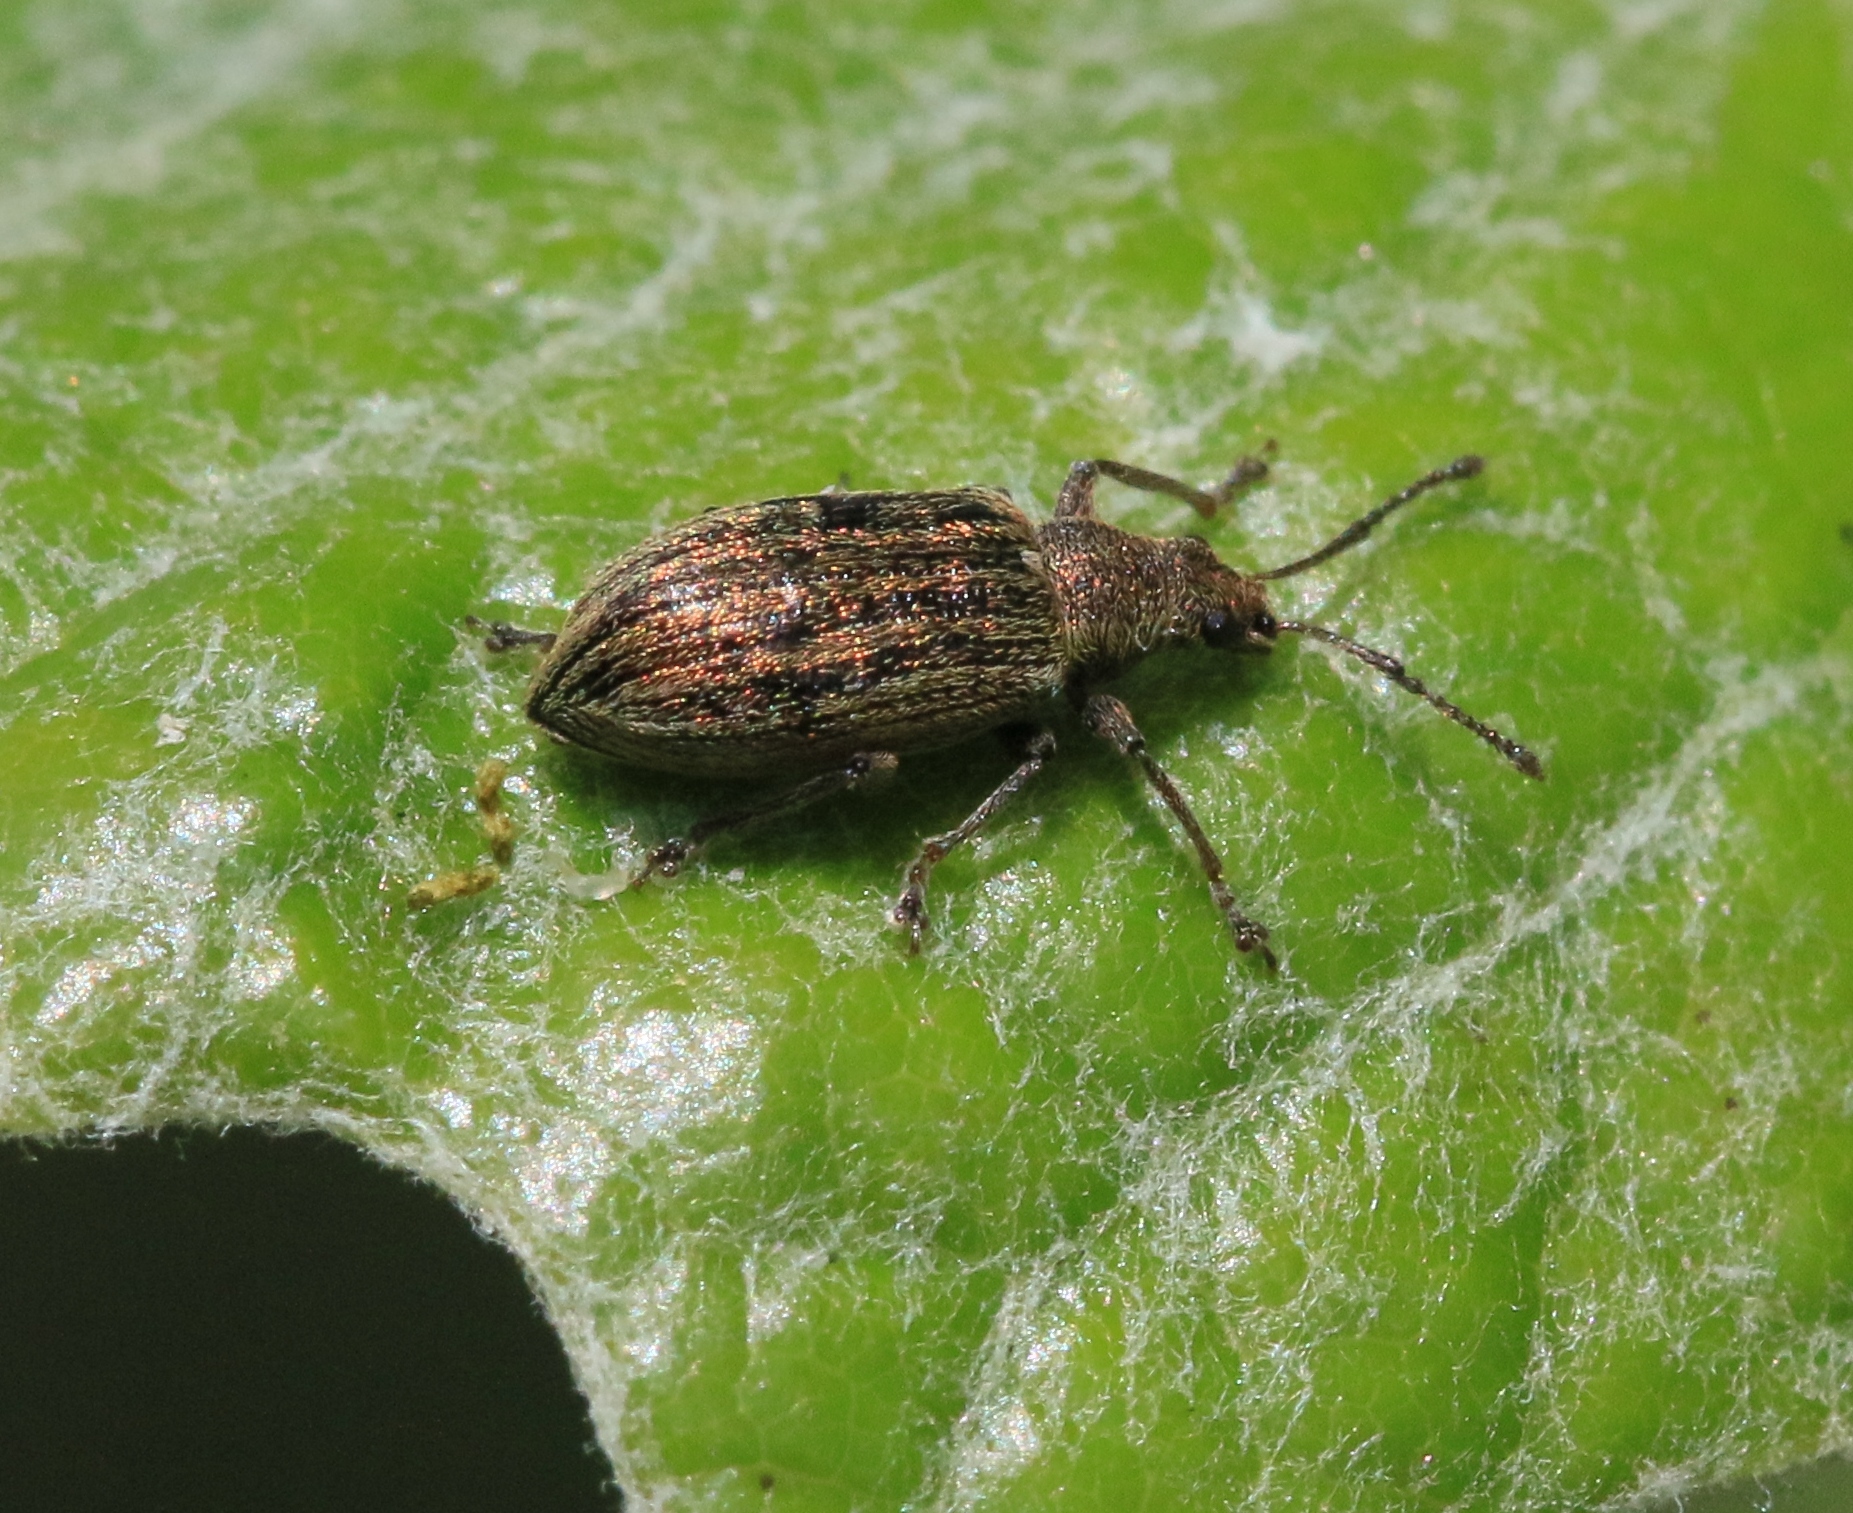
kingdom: Animalia
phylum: Arthropoda
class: Insecta
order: Coleoptera
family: Curculionidae
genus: Phyllobius
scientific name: Phyllobius pyri
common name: Common leaf weevil
